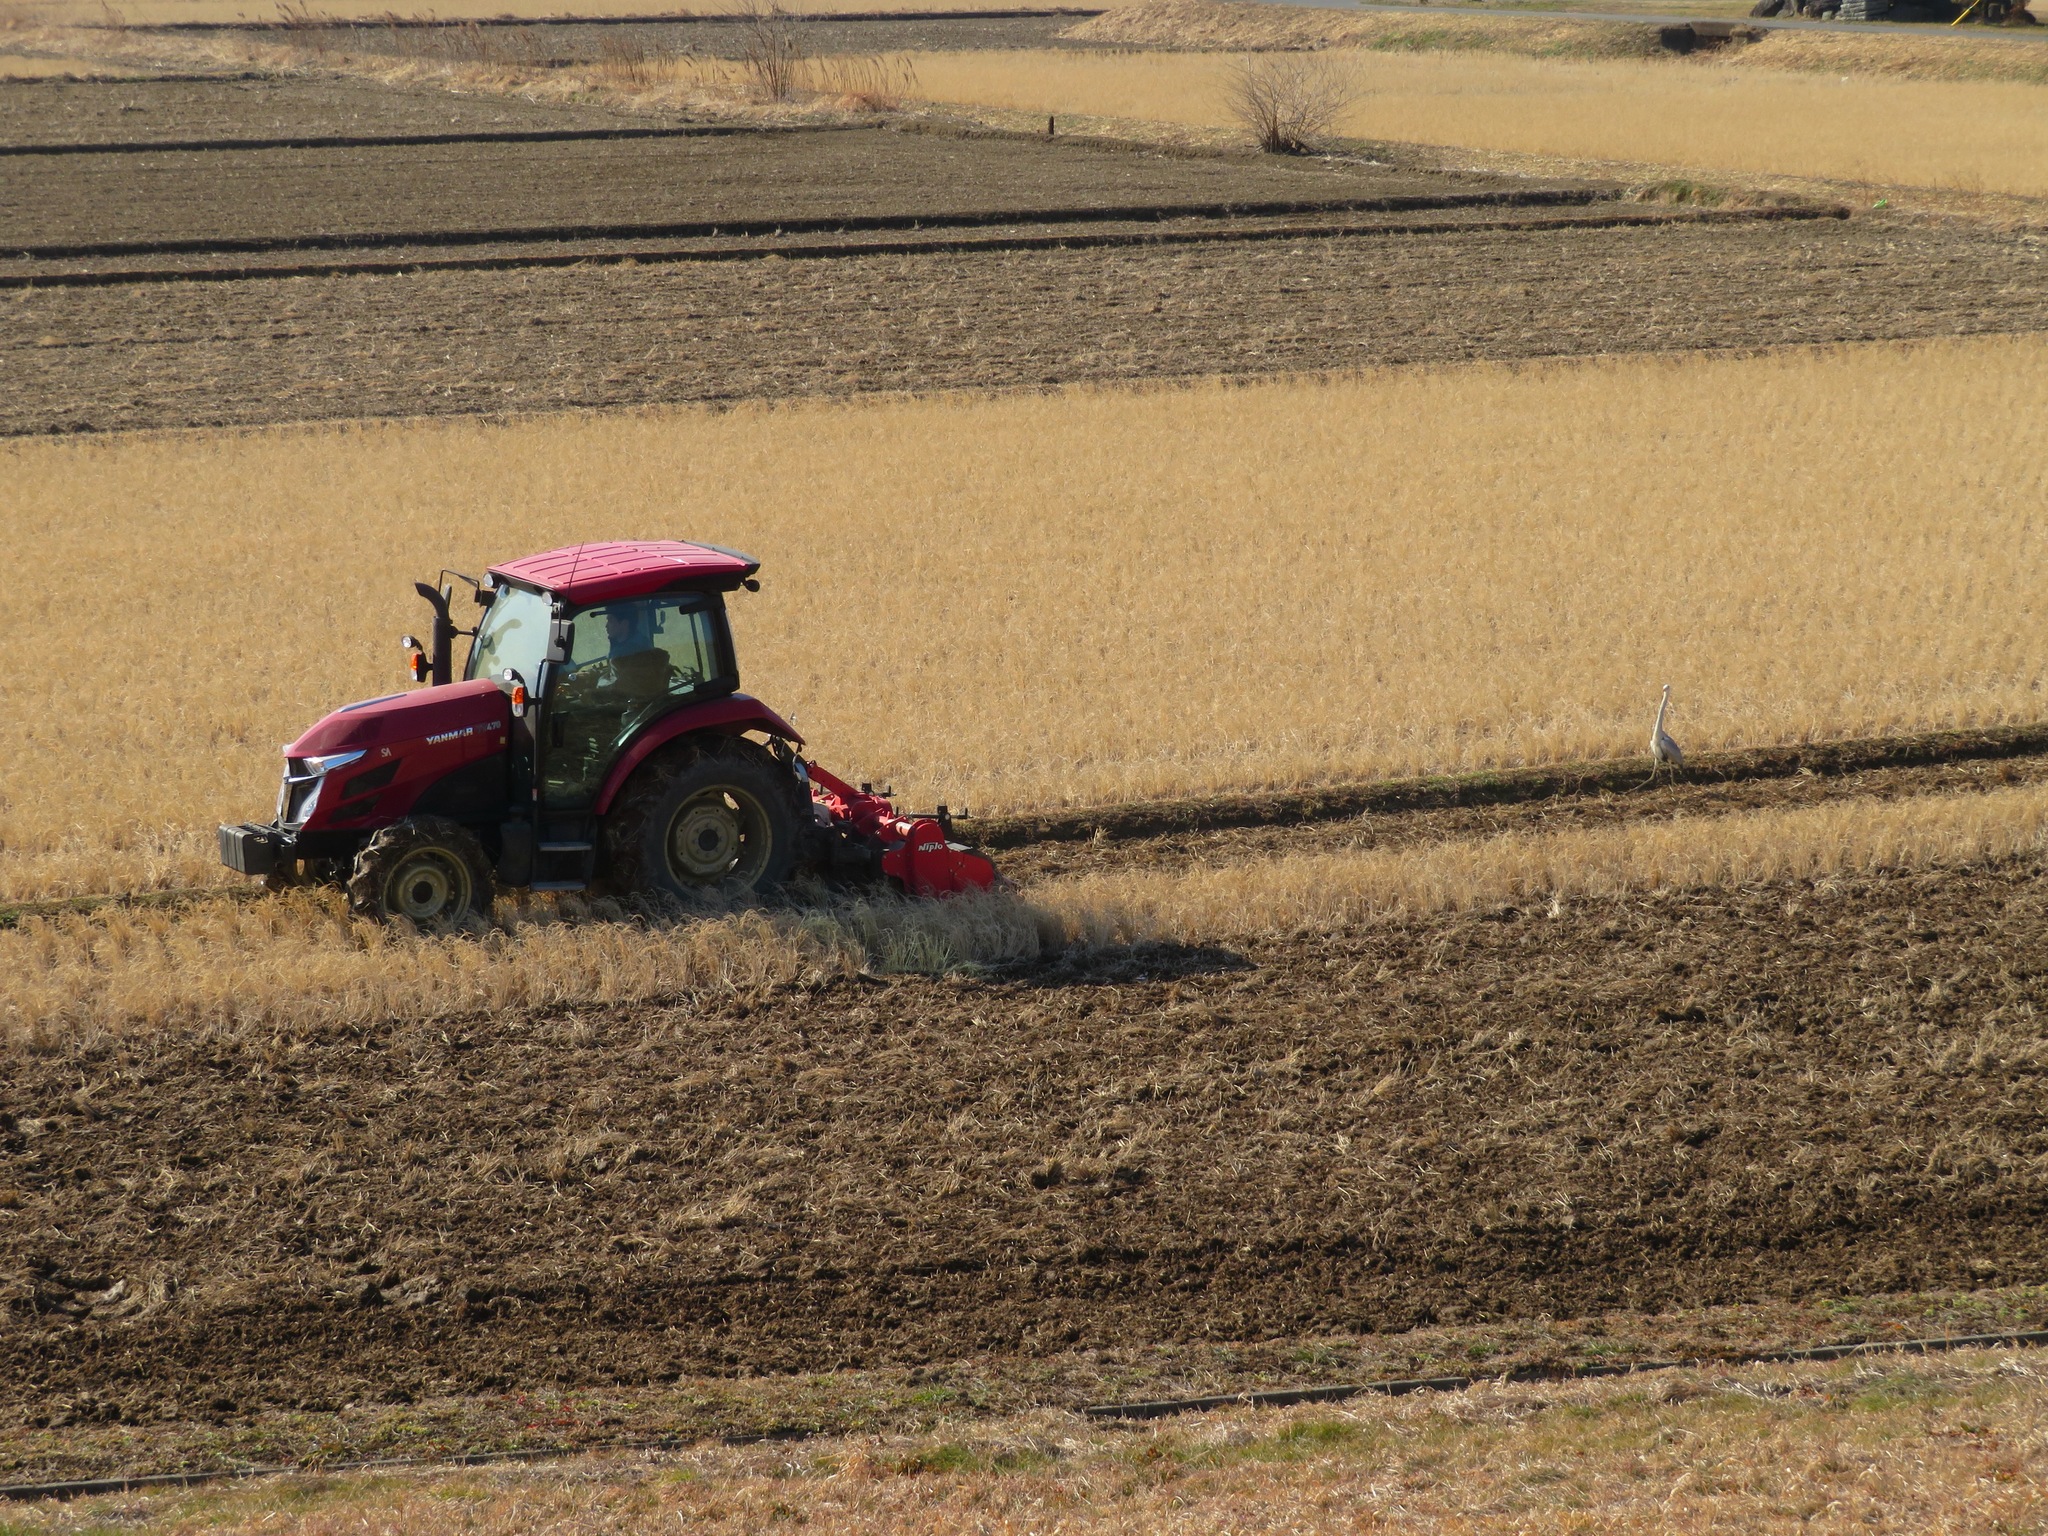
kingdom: Animalia
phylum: Chordata
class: Aves
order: Pelecaniformes
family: Ardeidae
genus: Ardea
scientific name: Ardea cinerea
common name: Grey heron
